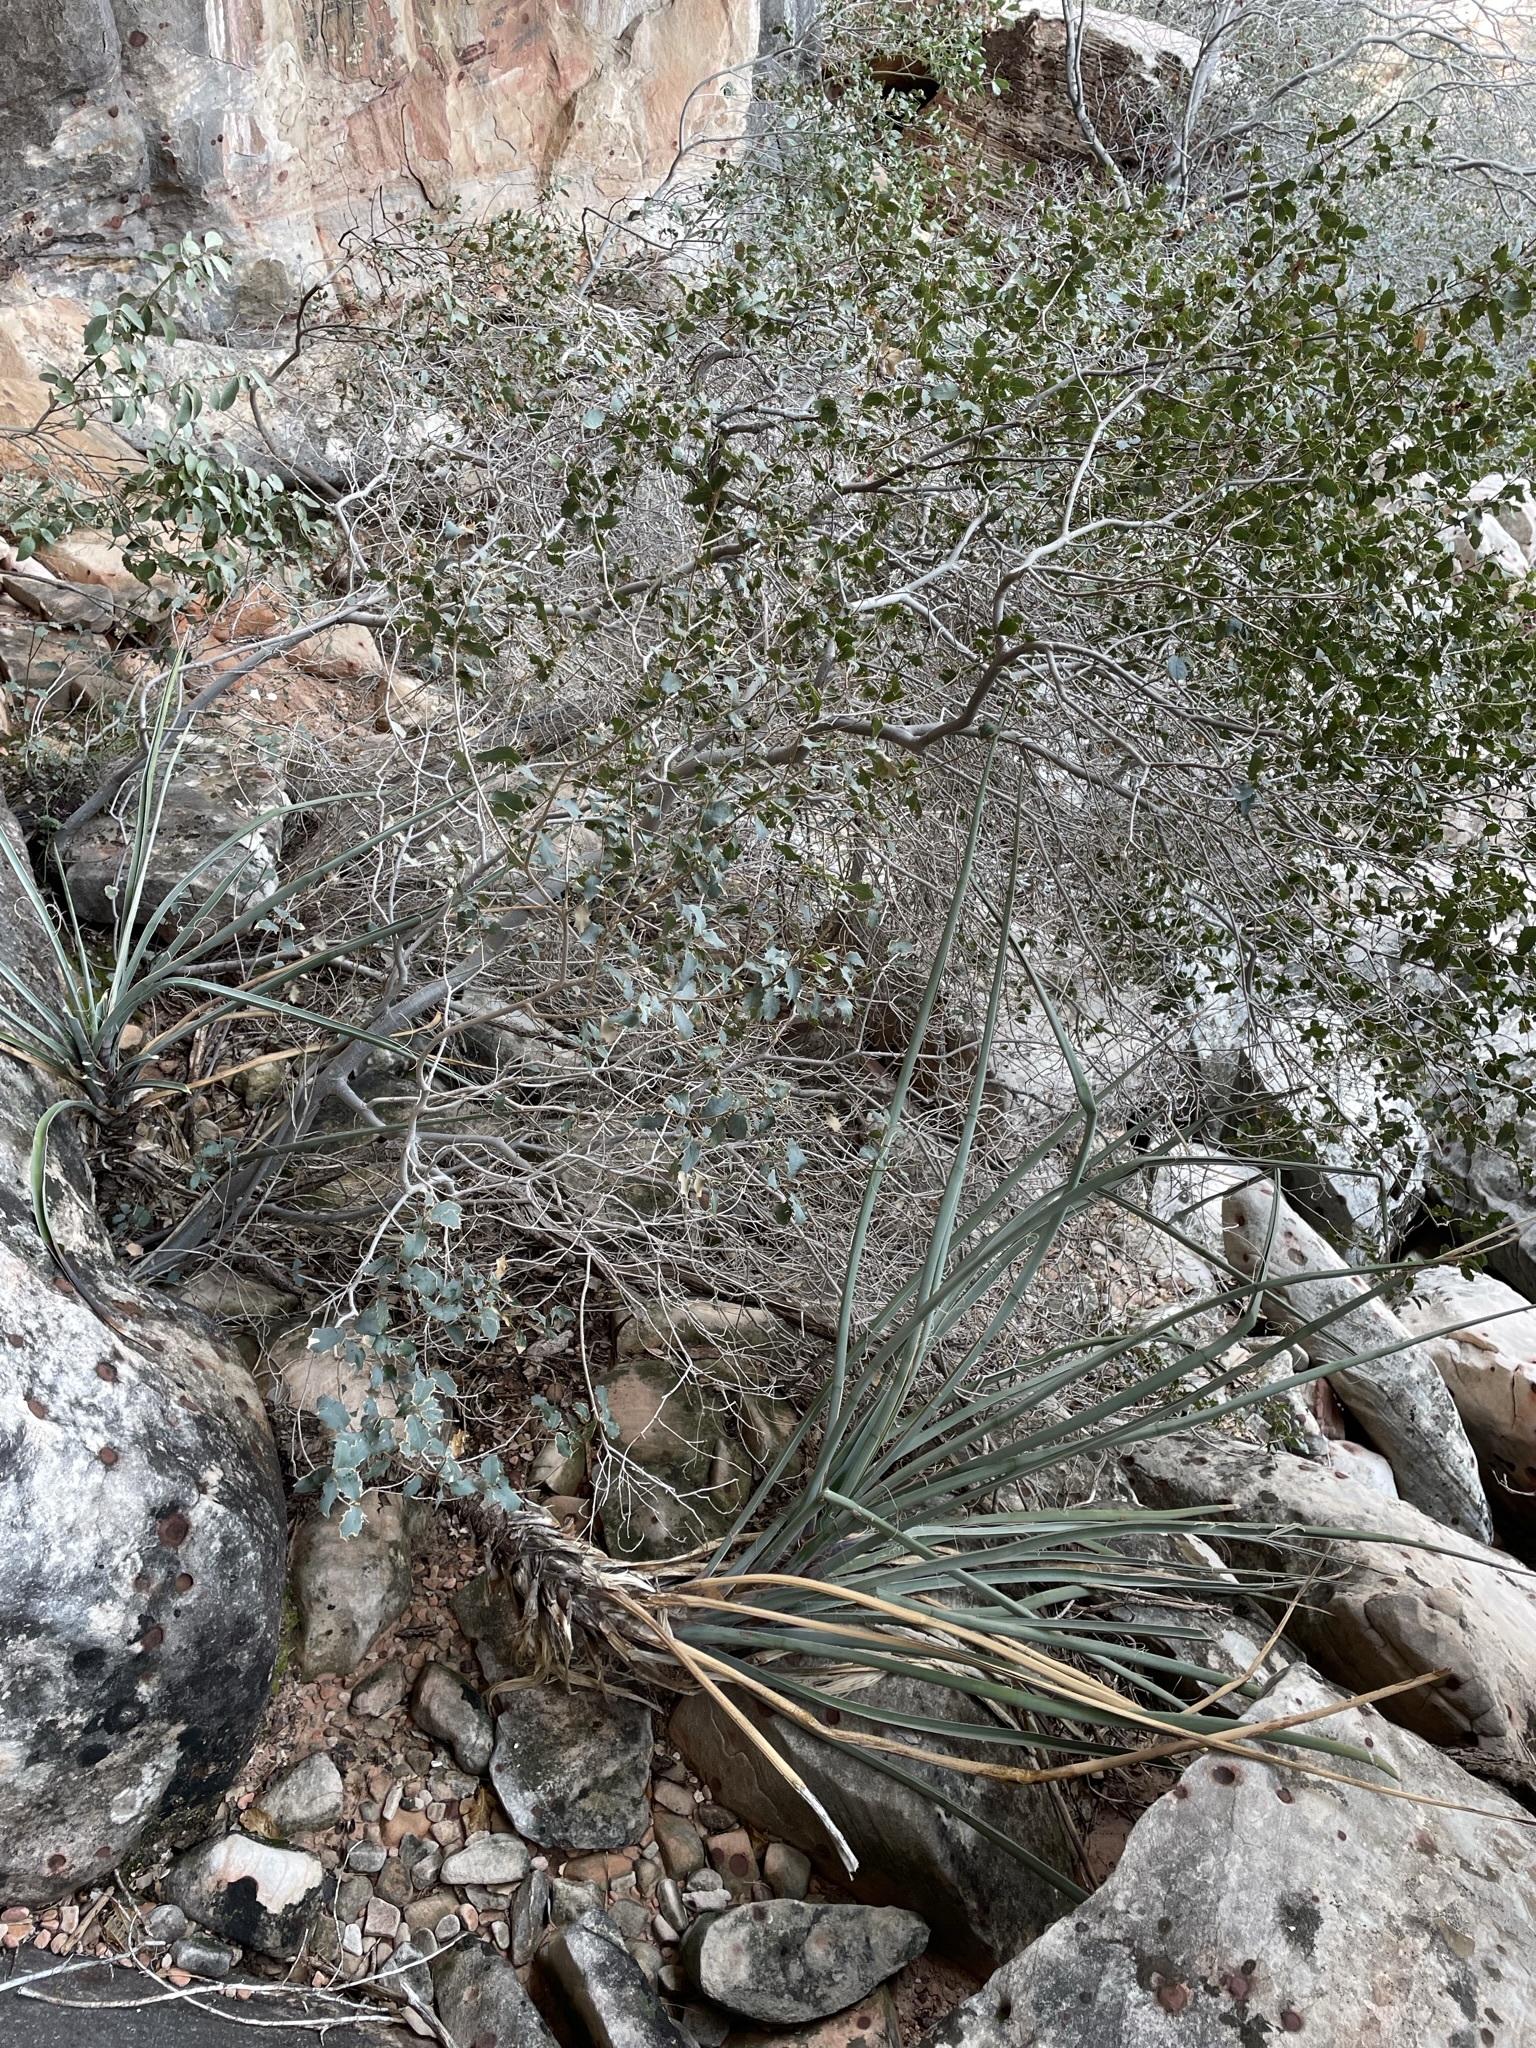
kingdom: Plantae
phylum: Tracheophyta
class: Liliopsida
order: Asparagales
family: Asparagaceae
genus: Yucca
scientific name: Yucca baccata
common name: Banana yucca
